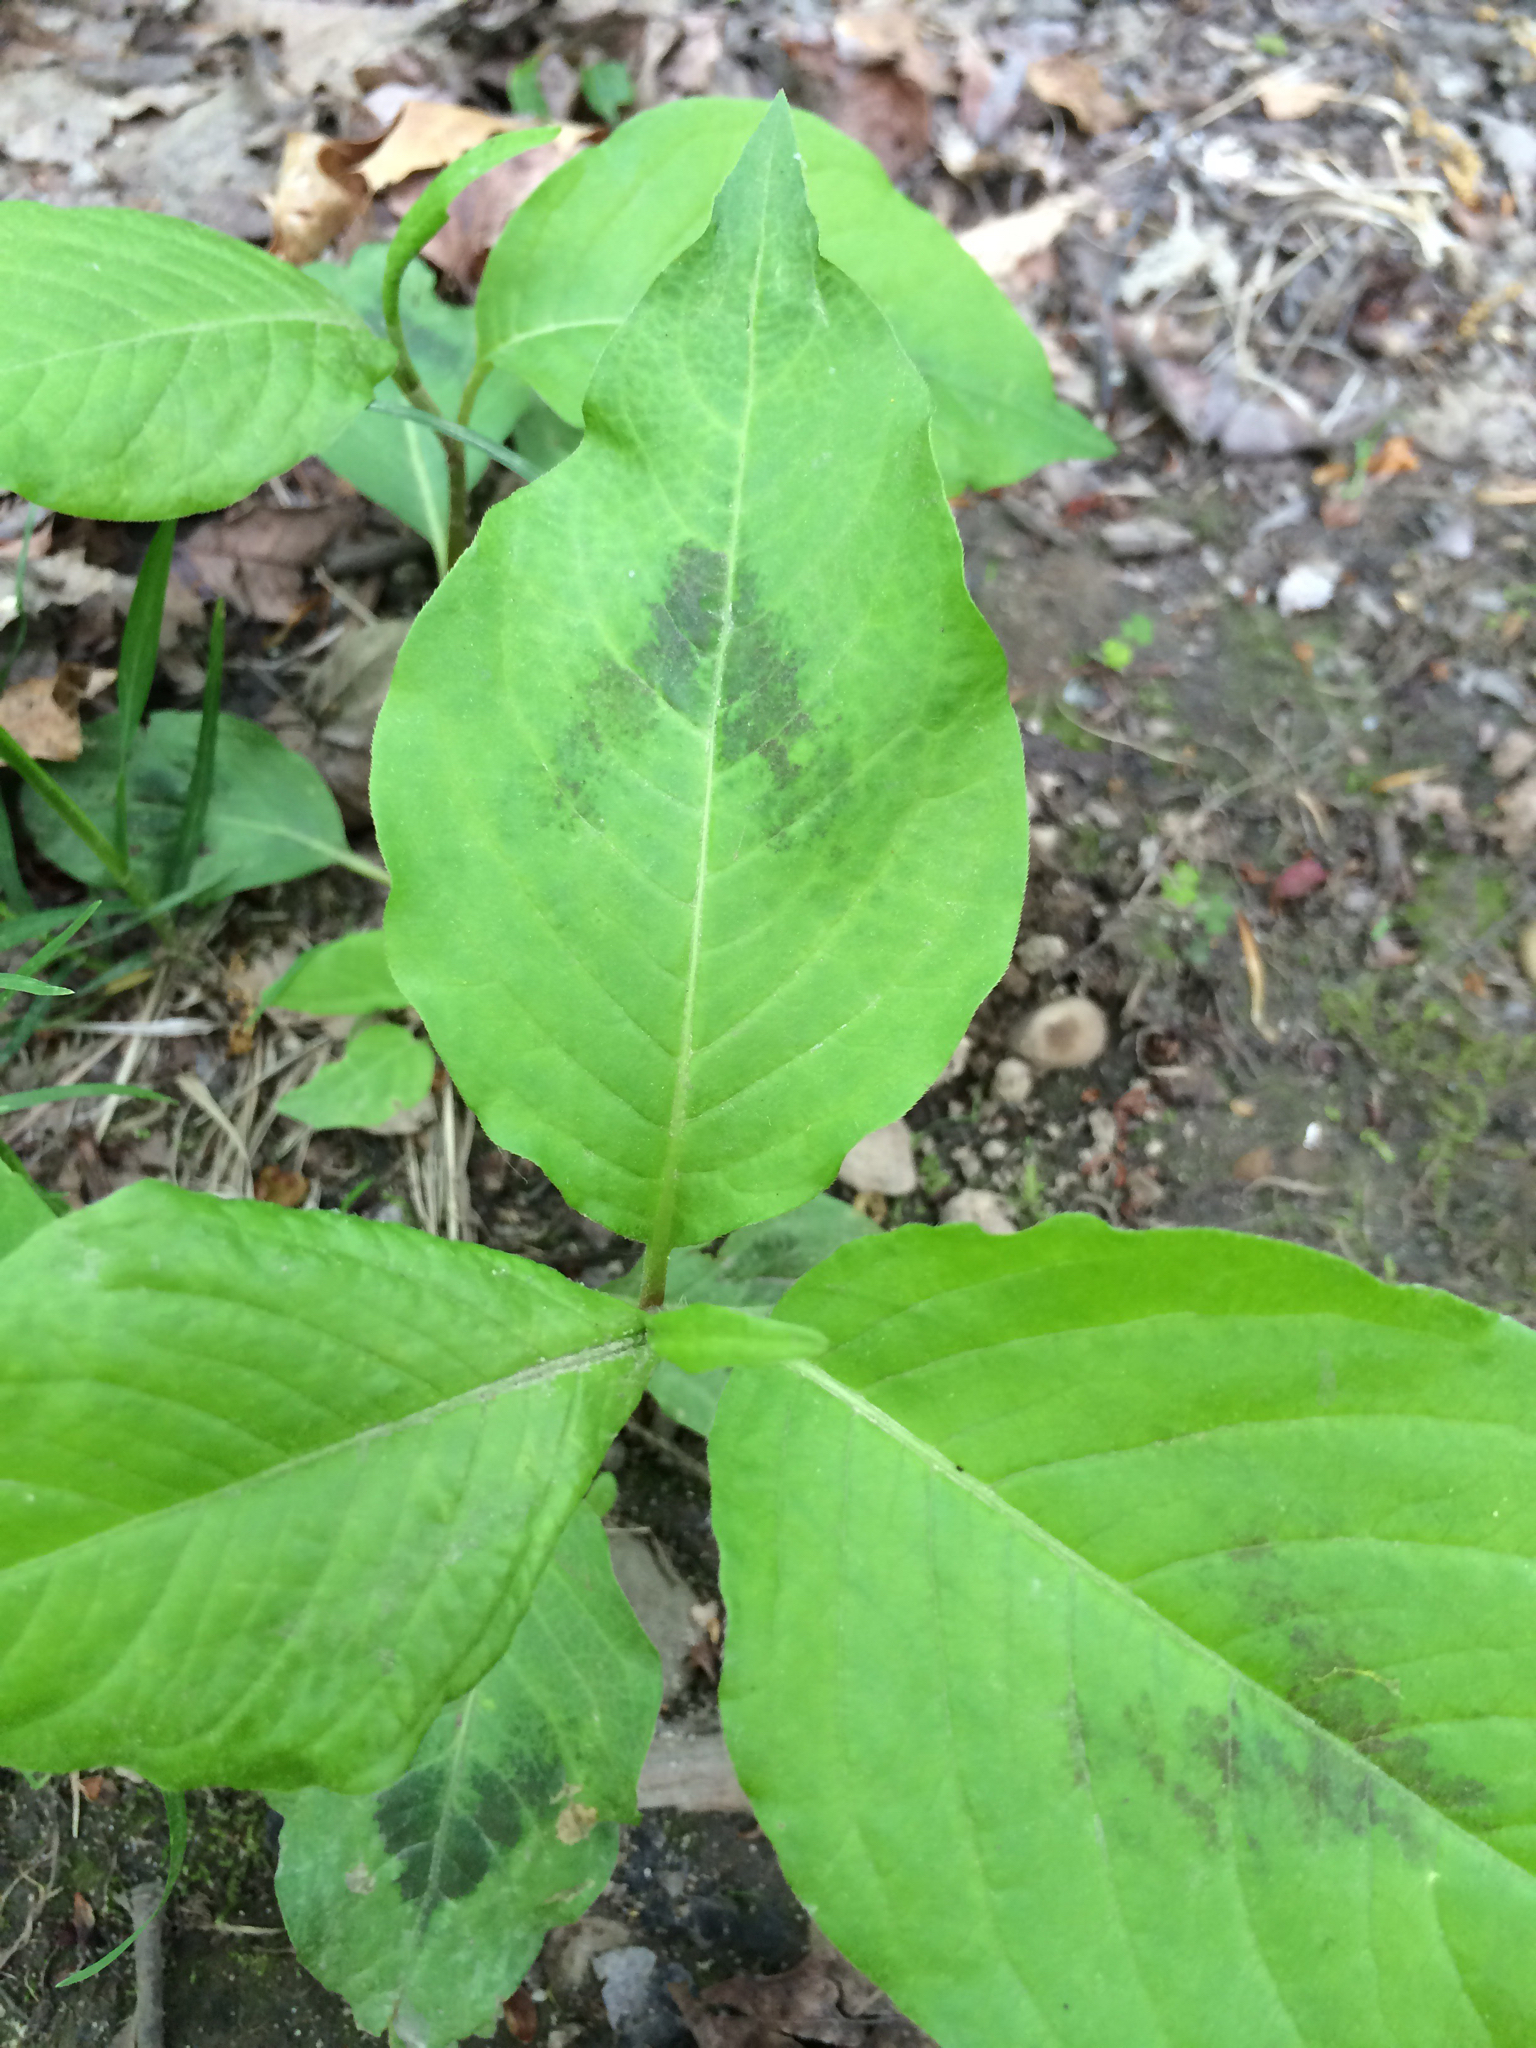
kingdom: Plantae
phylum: Tracheophyta
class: Magnoliopsida
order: Caryophyllales
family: Polygonaceae
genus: Persicaria
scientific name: Persicaria virginiana
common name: Jumpseed
